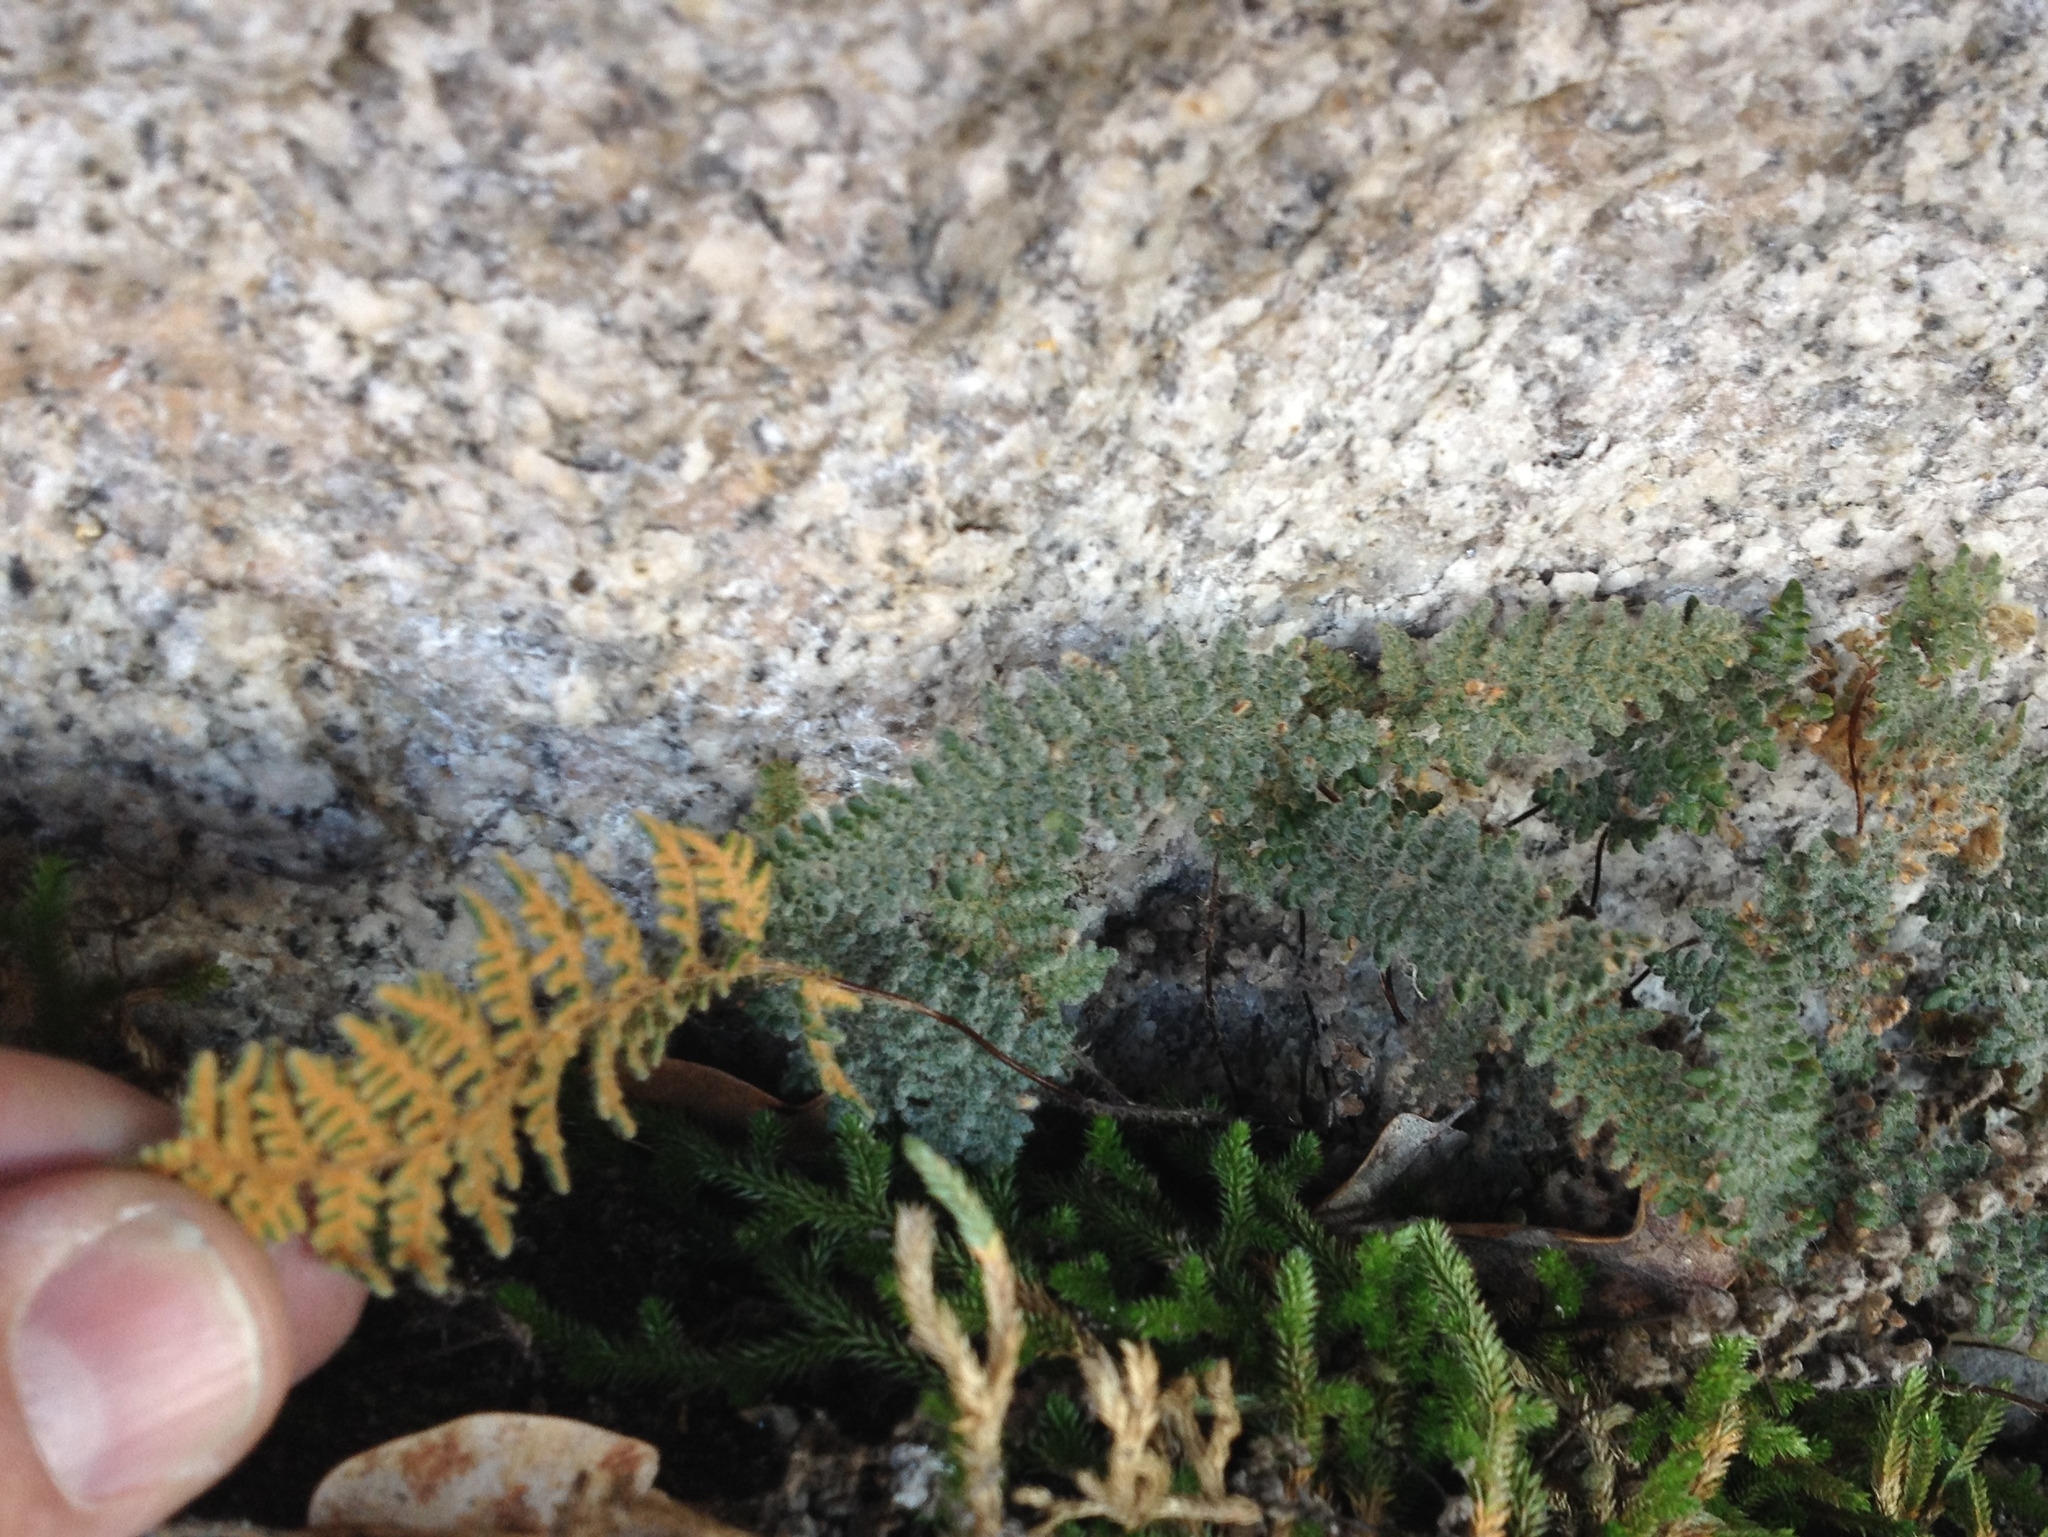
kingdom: Plantae
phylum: Tracheophyta
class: Polypodiopsida
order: Polypodiales
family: Pteridaceae
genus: Myriopteris
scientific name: Myriopteris gracillima
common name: Lace fern
